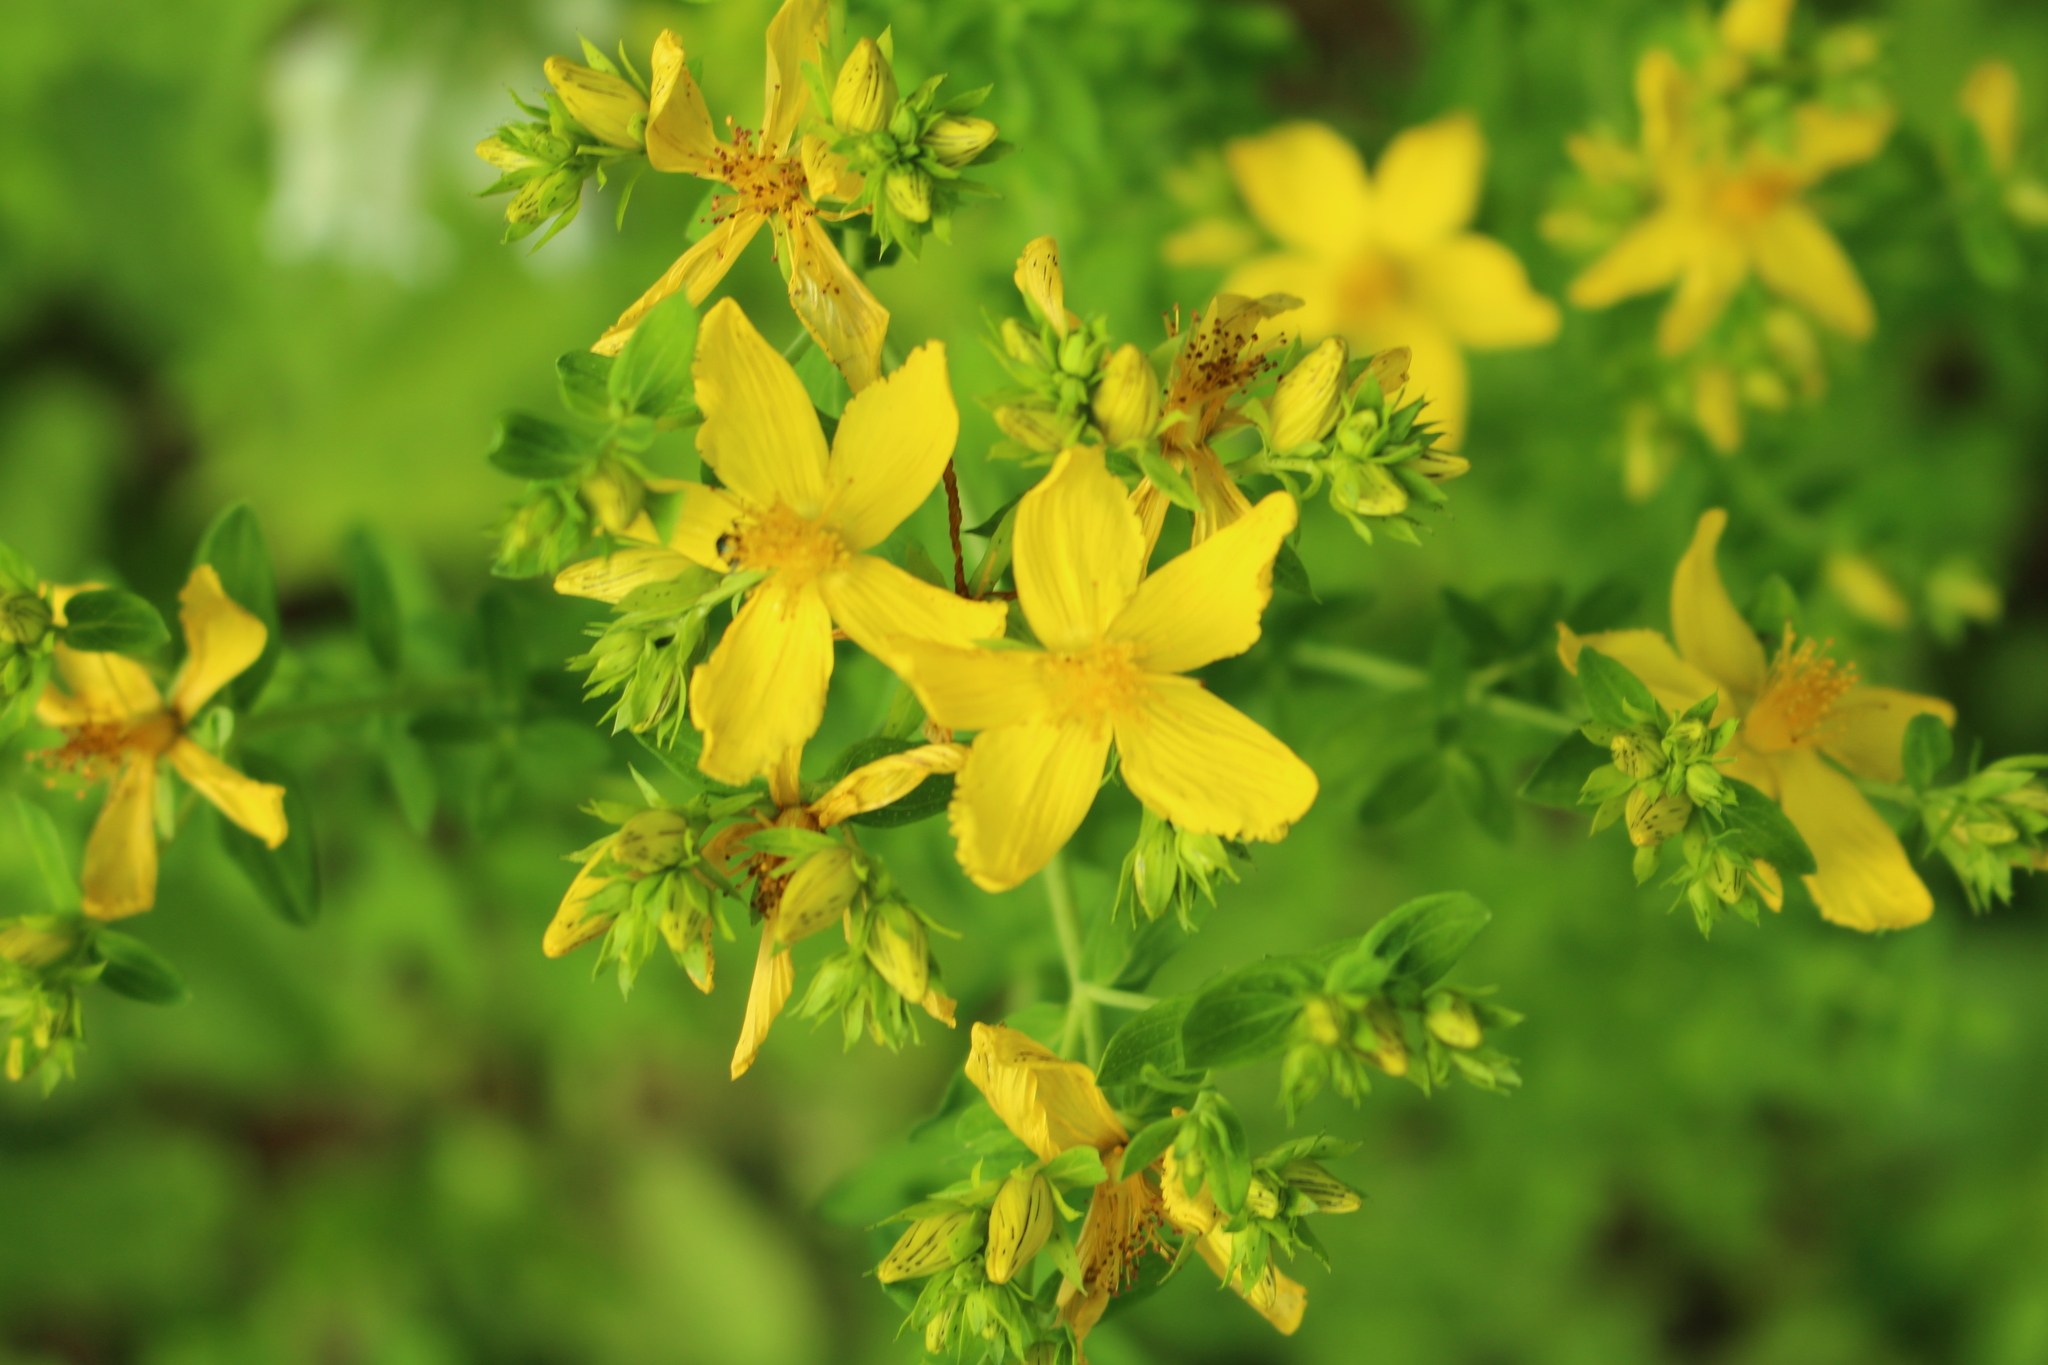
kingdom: Plantae
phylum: Tracheophyta
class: Magnoliopsida
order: Malpighiales
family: Hypericaceae
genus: Hypericum
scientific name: Hypericum perforatum
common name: Common st. johnswort
